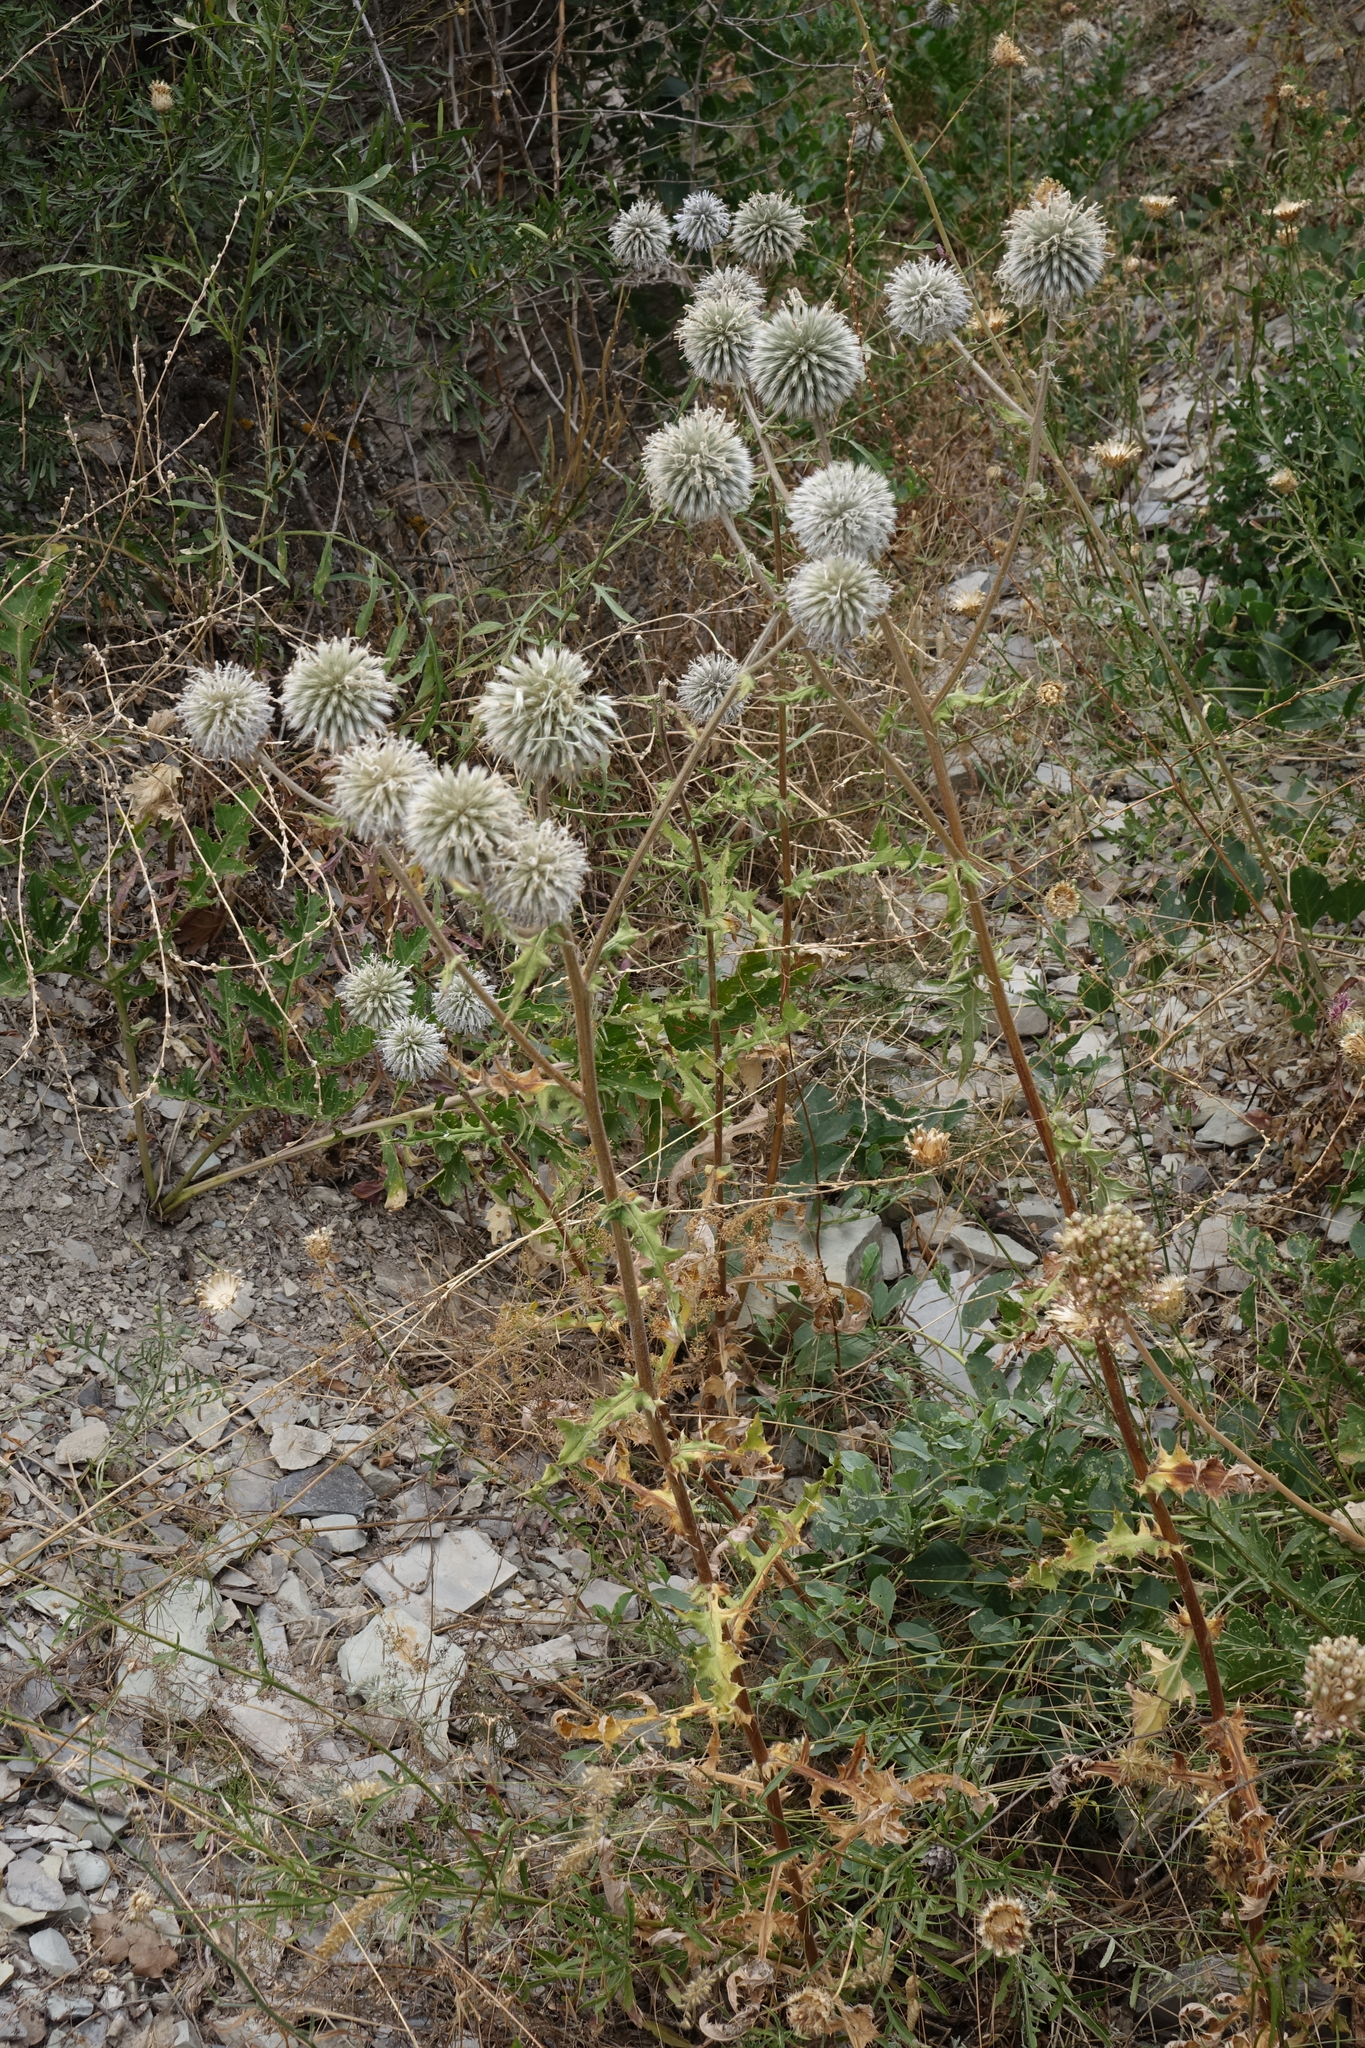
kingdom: Plantae
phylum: Tracheophyta
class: Magnoliopsida
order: Asterales
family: Asteraceae
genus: Echinops
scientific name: Echinops sphaerocephalus
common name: Glandular globe-thistle
